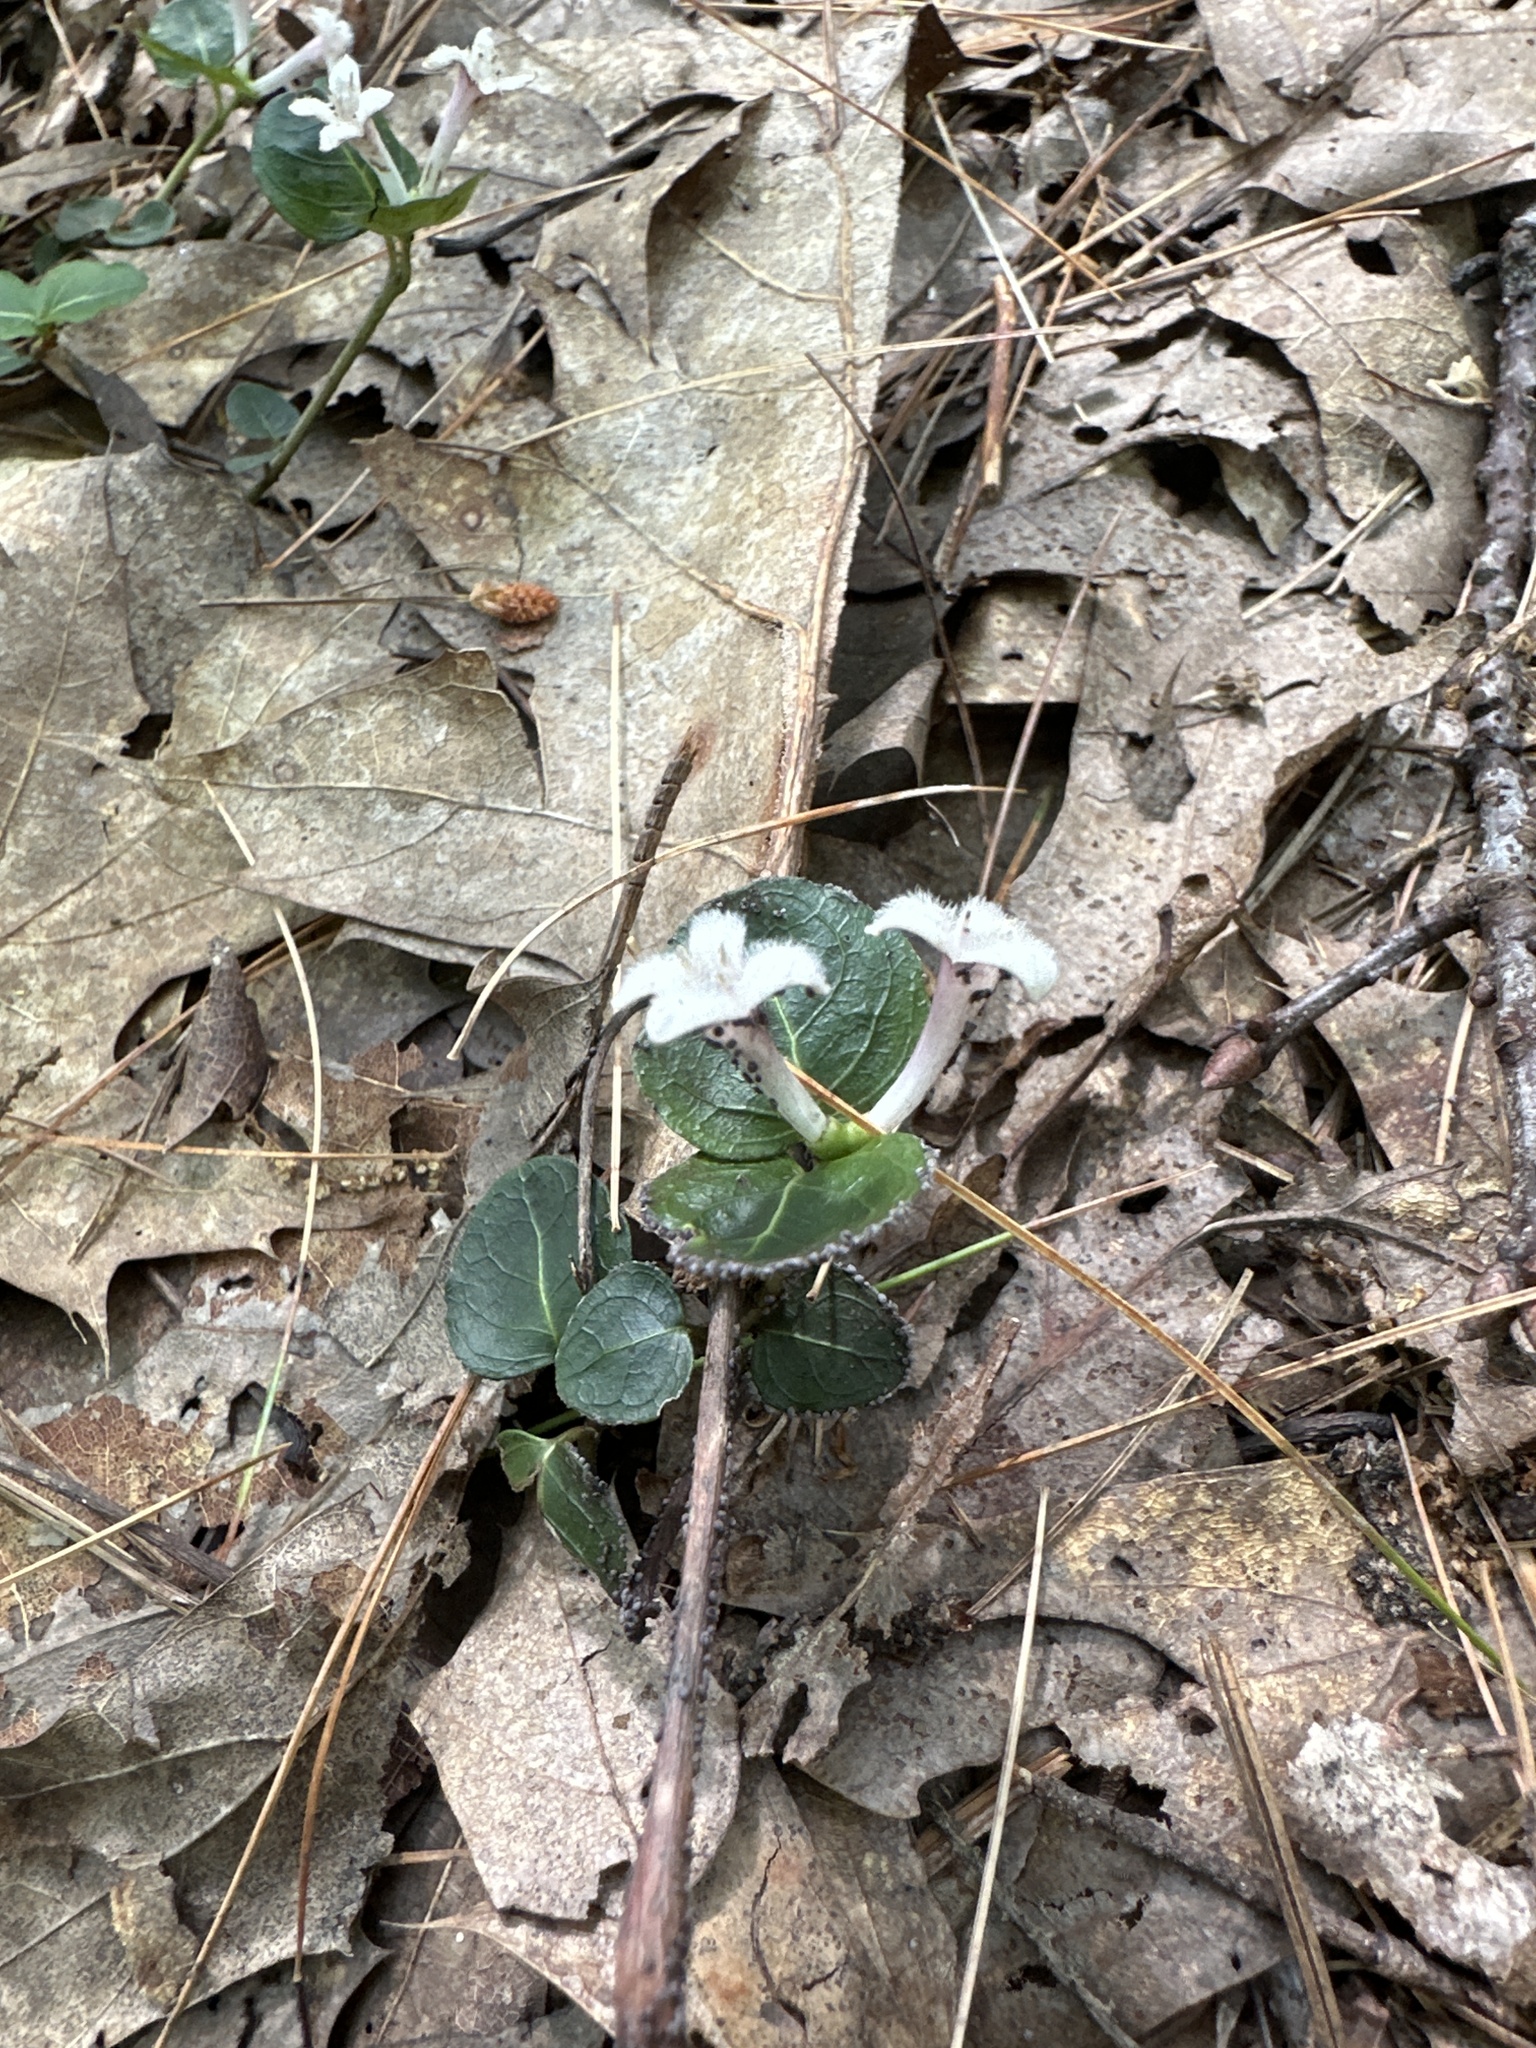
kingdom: Plantae
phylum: Tracheophyta
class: Magnoliopsida
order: Gentianales
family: Rubiaceae
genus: Mitchella
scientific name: Mitchella repens
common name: Partridge-berry
